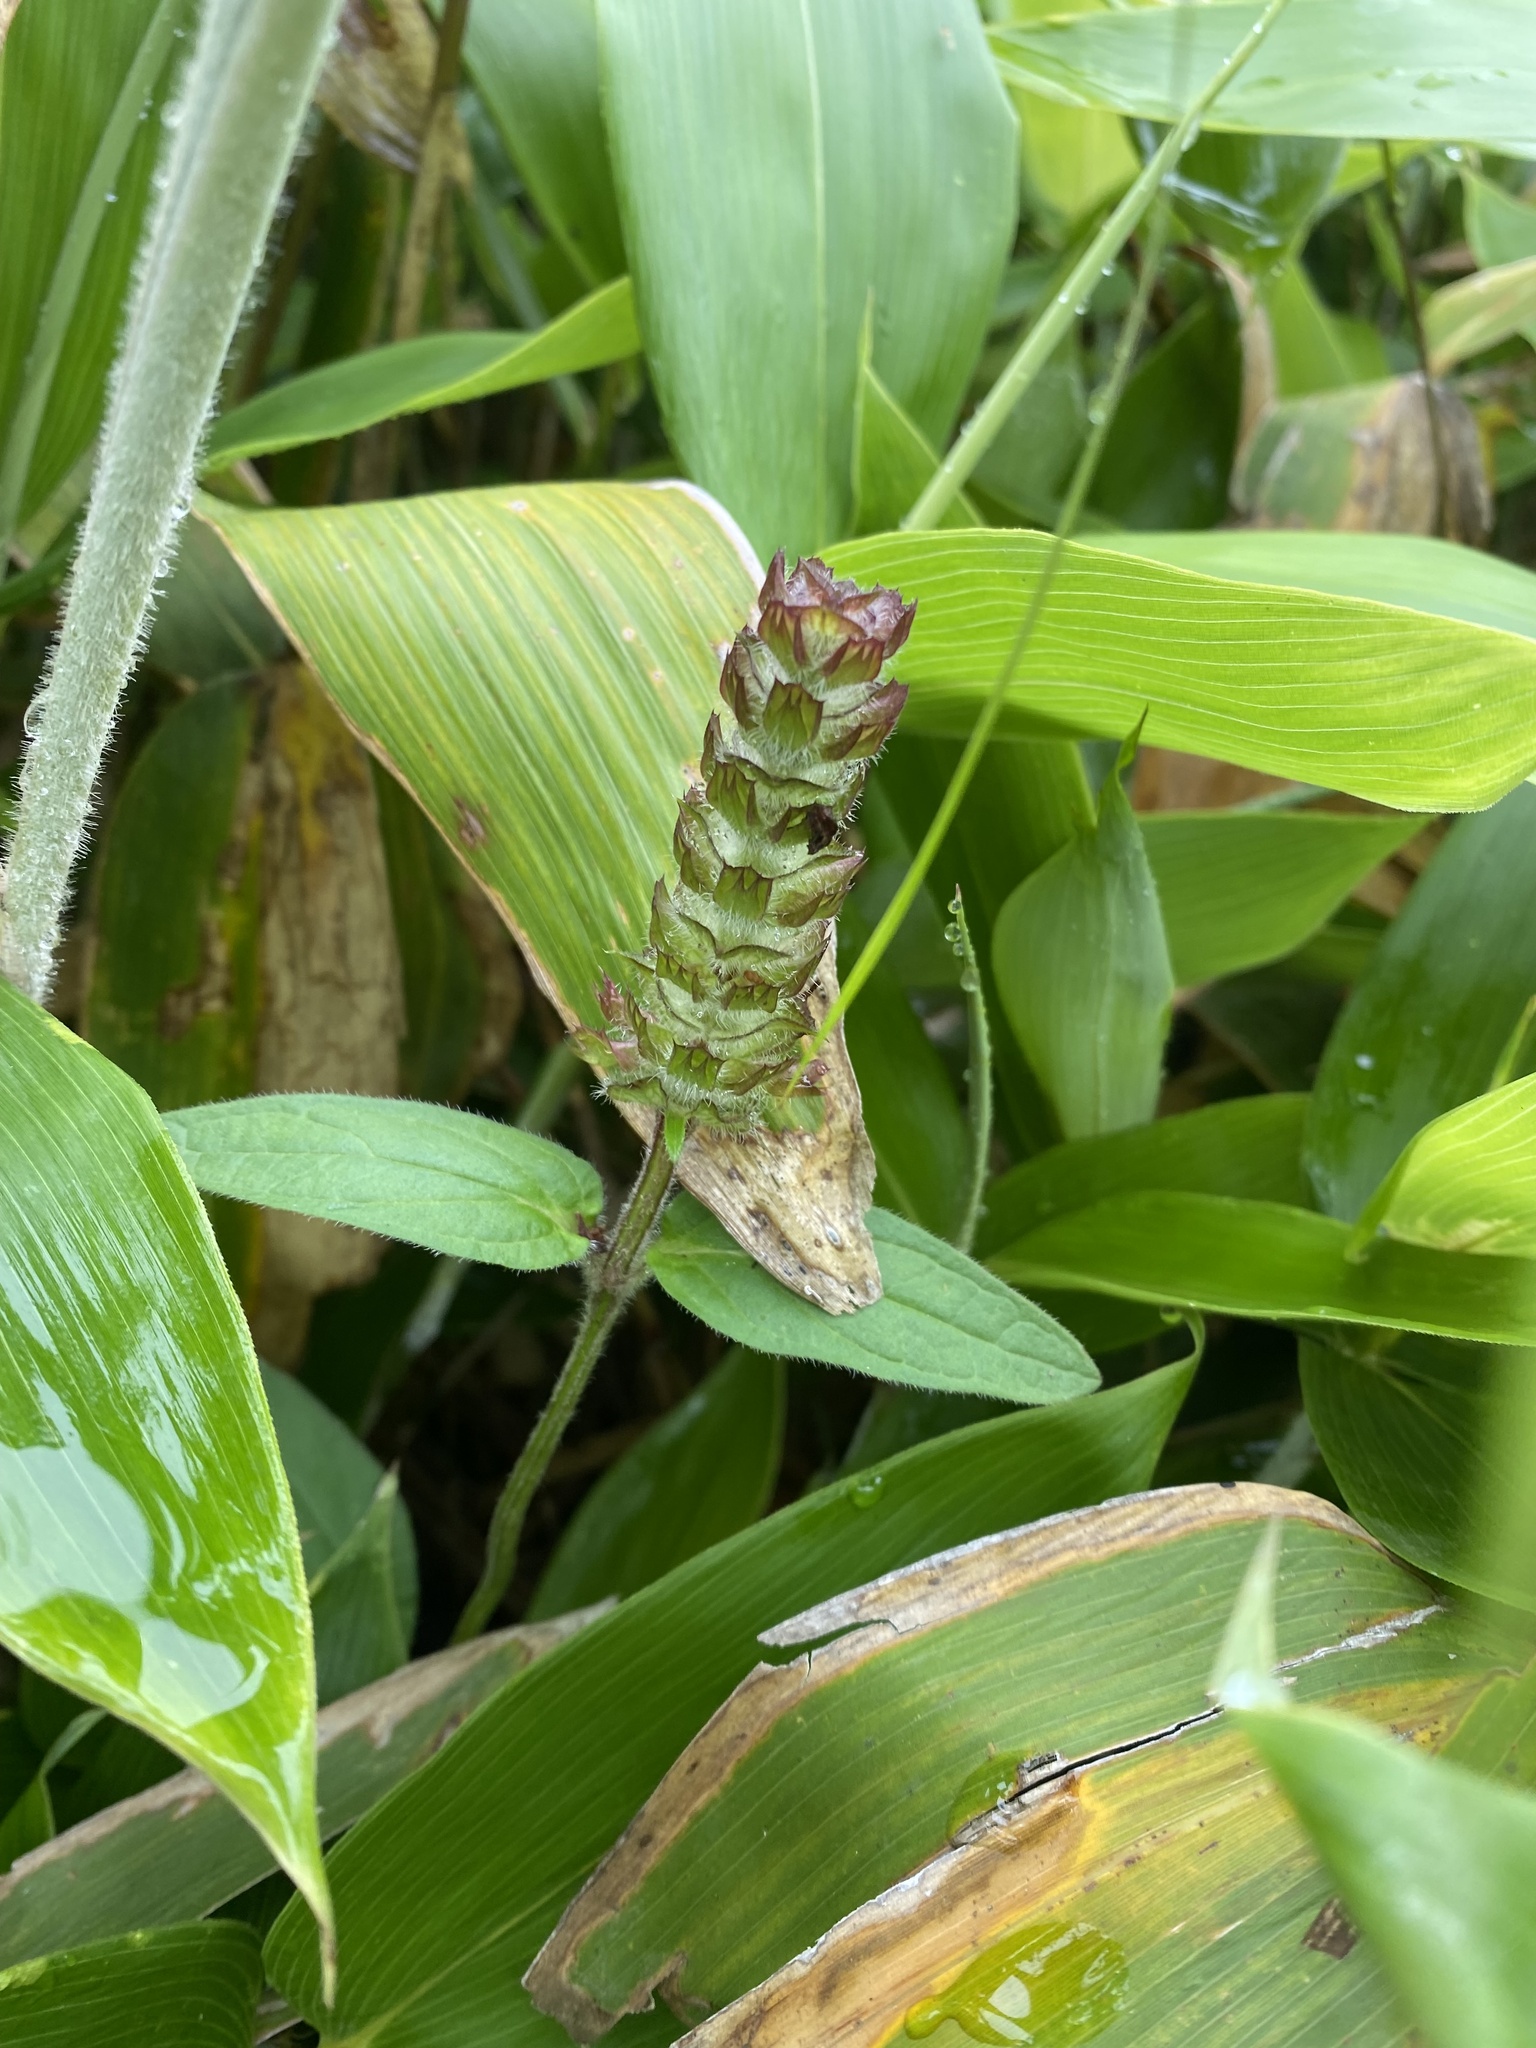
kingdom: Plantae
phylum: Tracheophyta
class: Magnoliopsida
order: Lamiales
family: Lamiaceae
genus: Prunella
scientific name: Prunella vulgaris
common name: Heal-all
